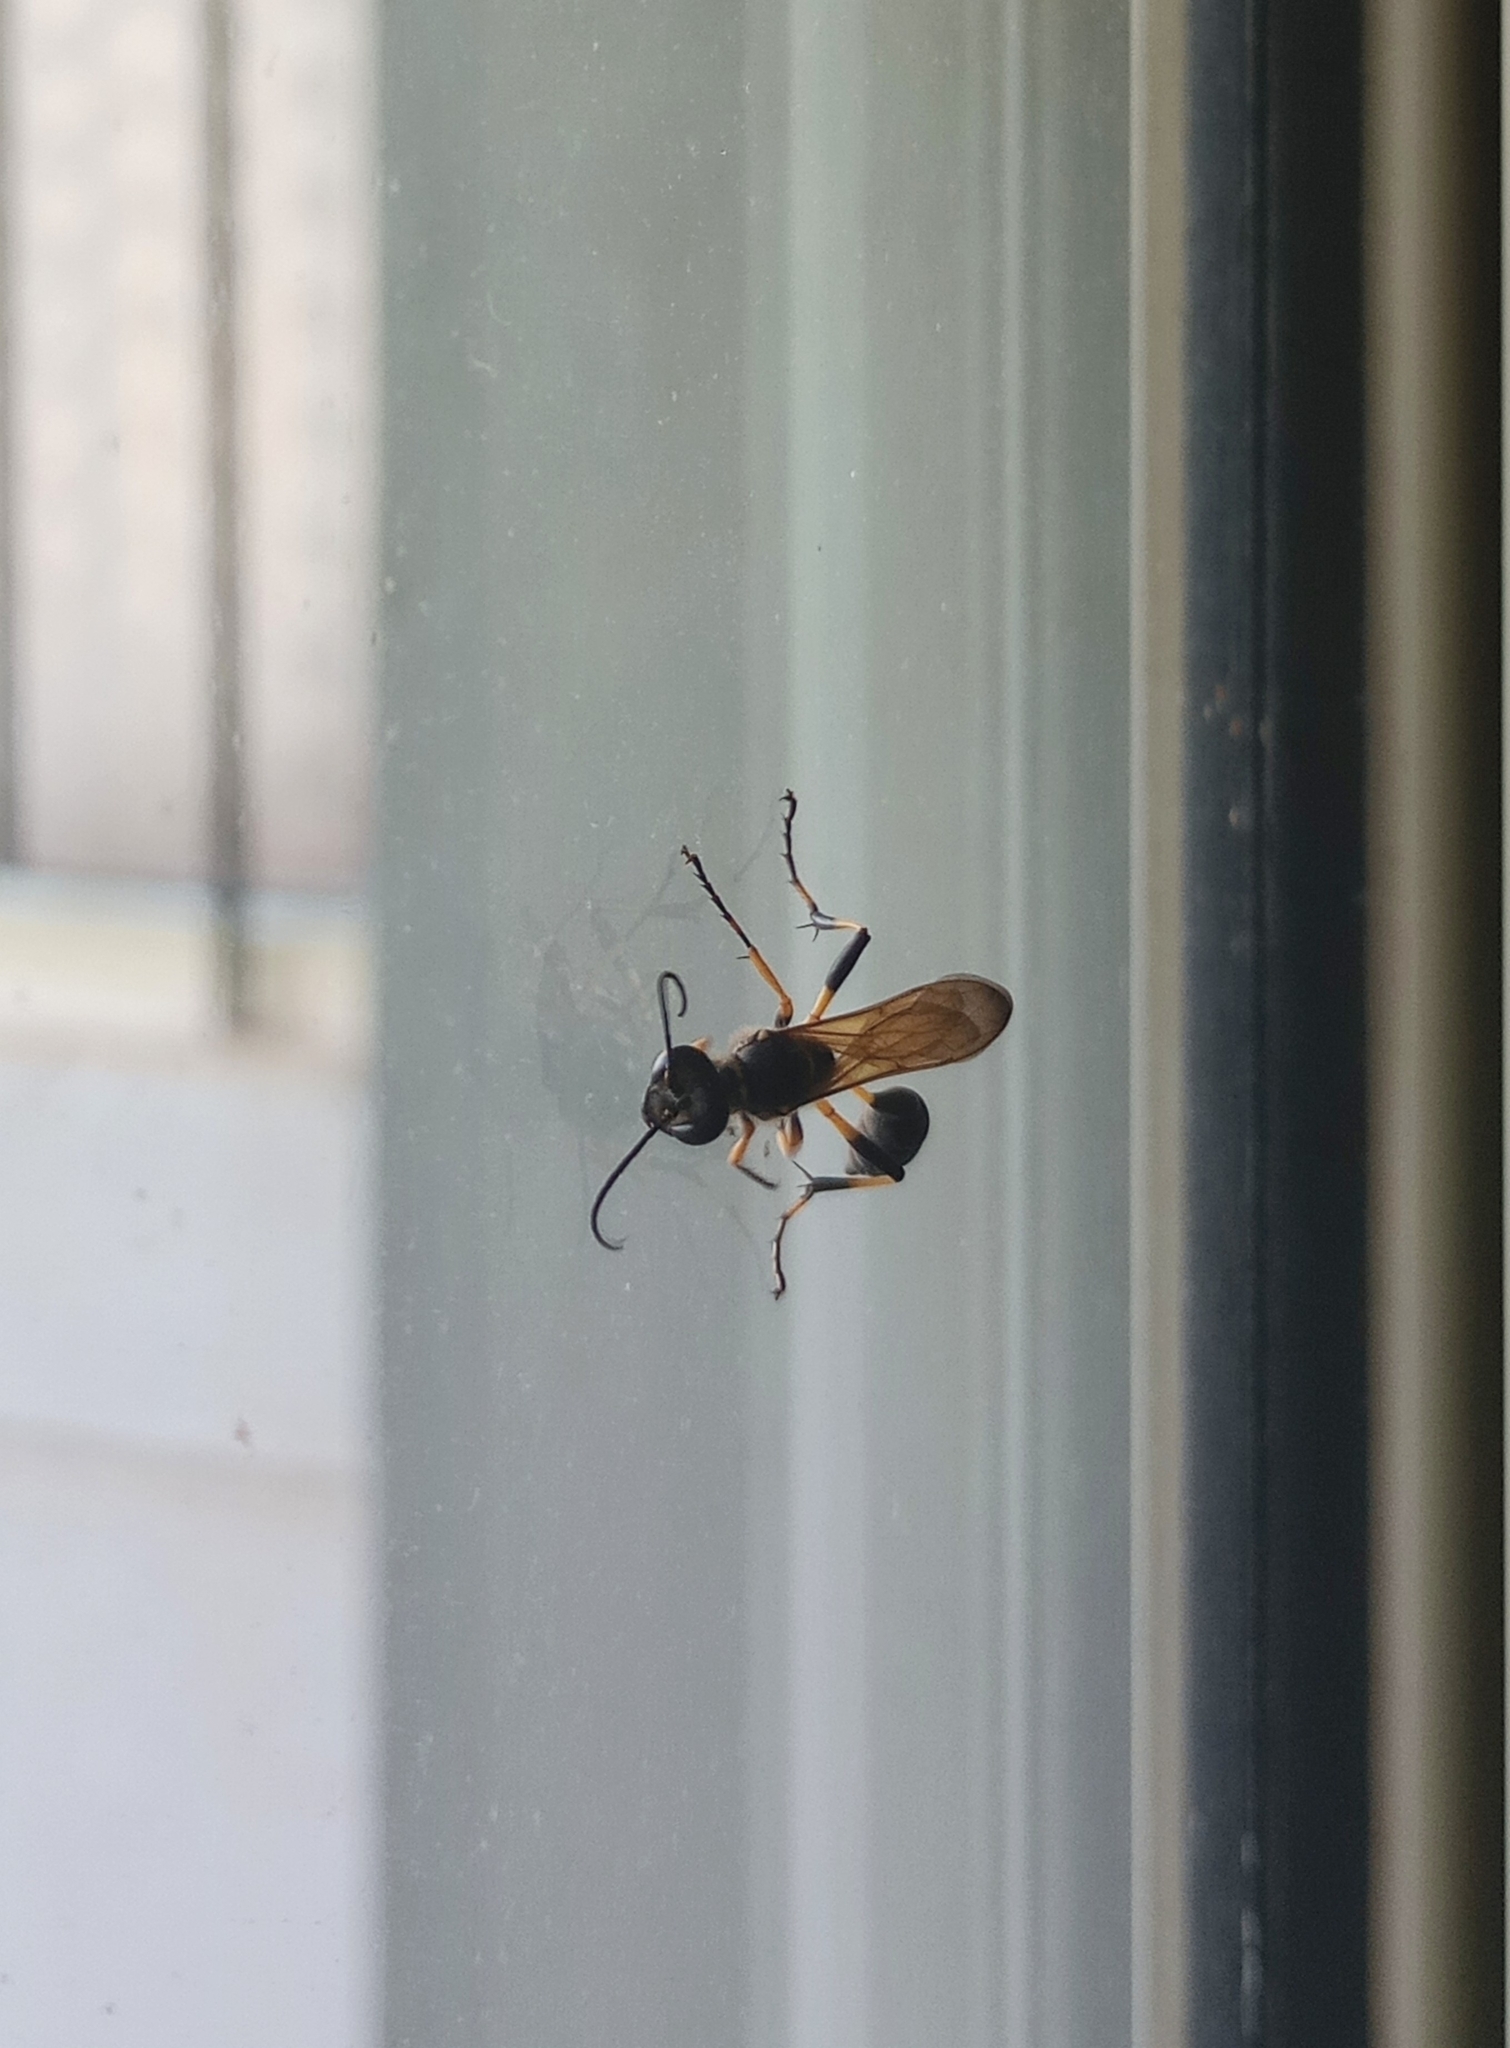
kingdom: Animalia
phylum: Arthropoda
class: Insecta
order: Hymenoptera
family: Sphecidae
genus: Sceliphron
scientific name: Sceliphron madraspatanum
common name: Mud dauber
